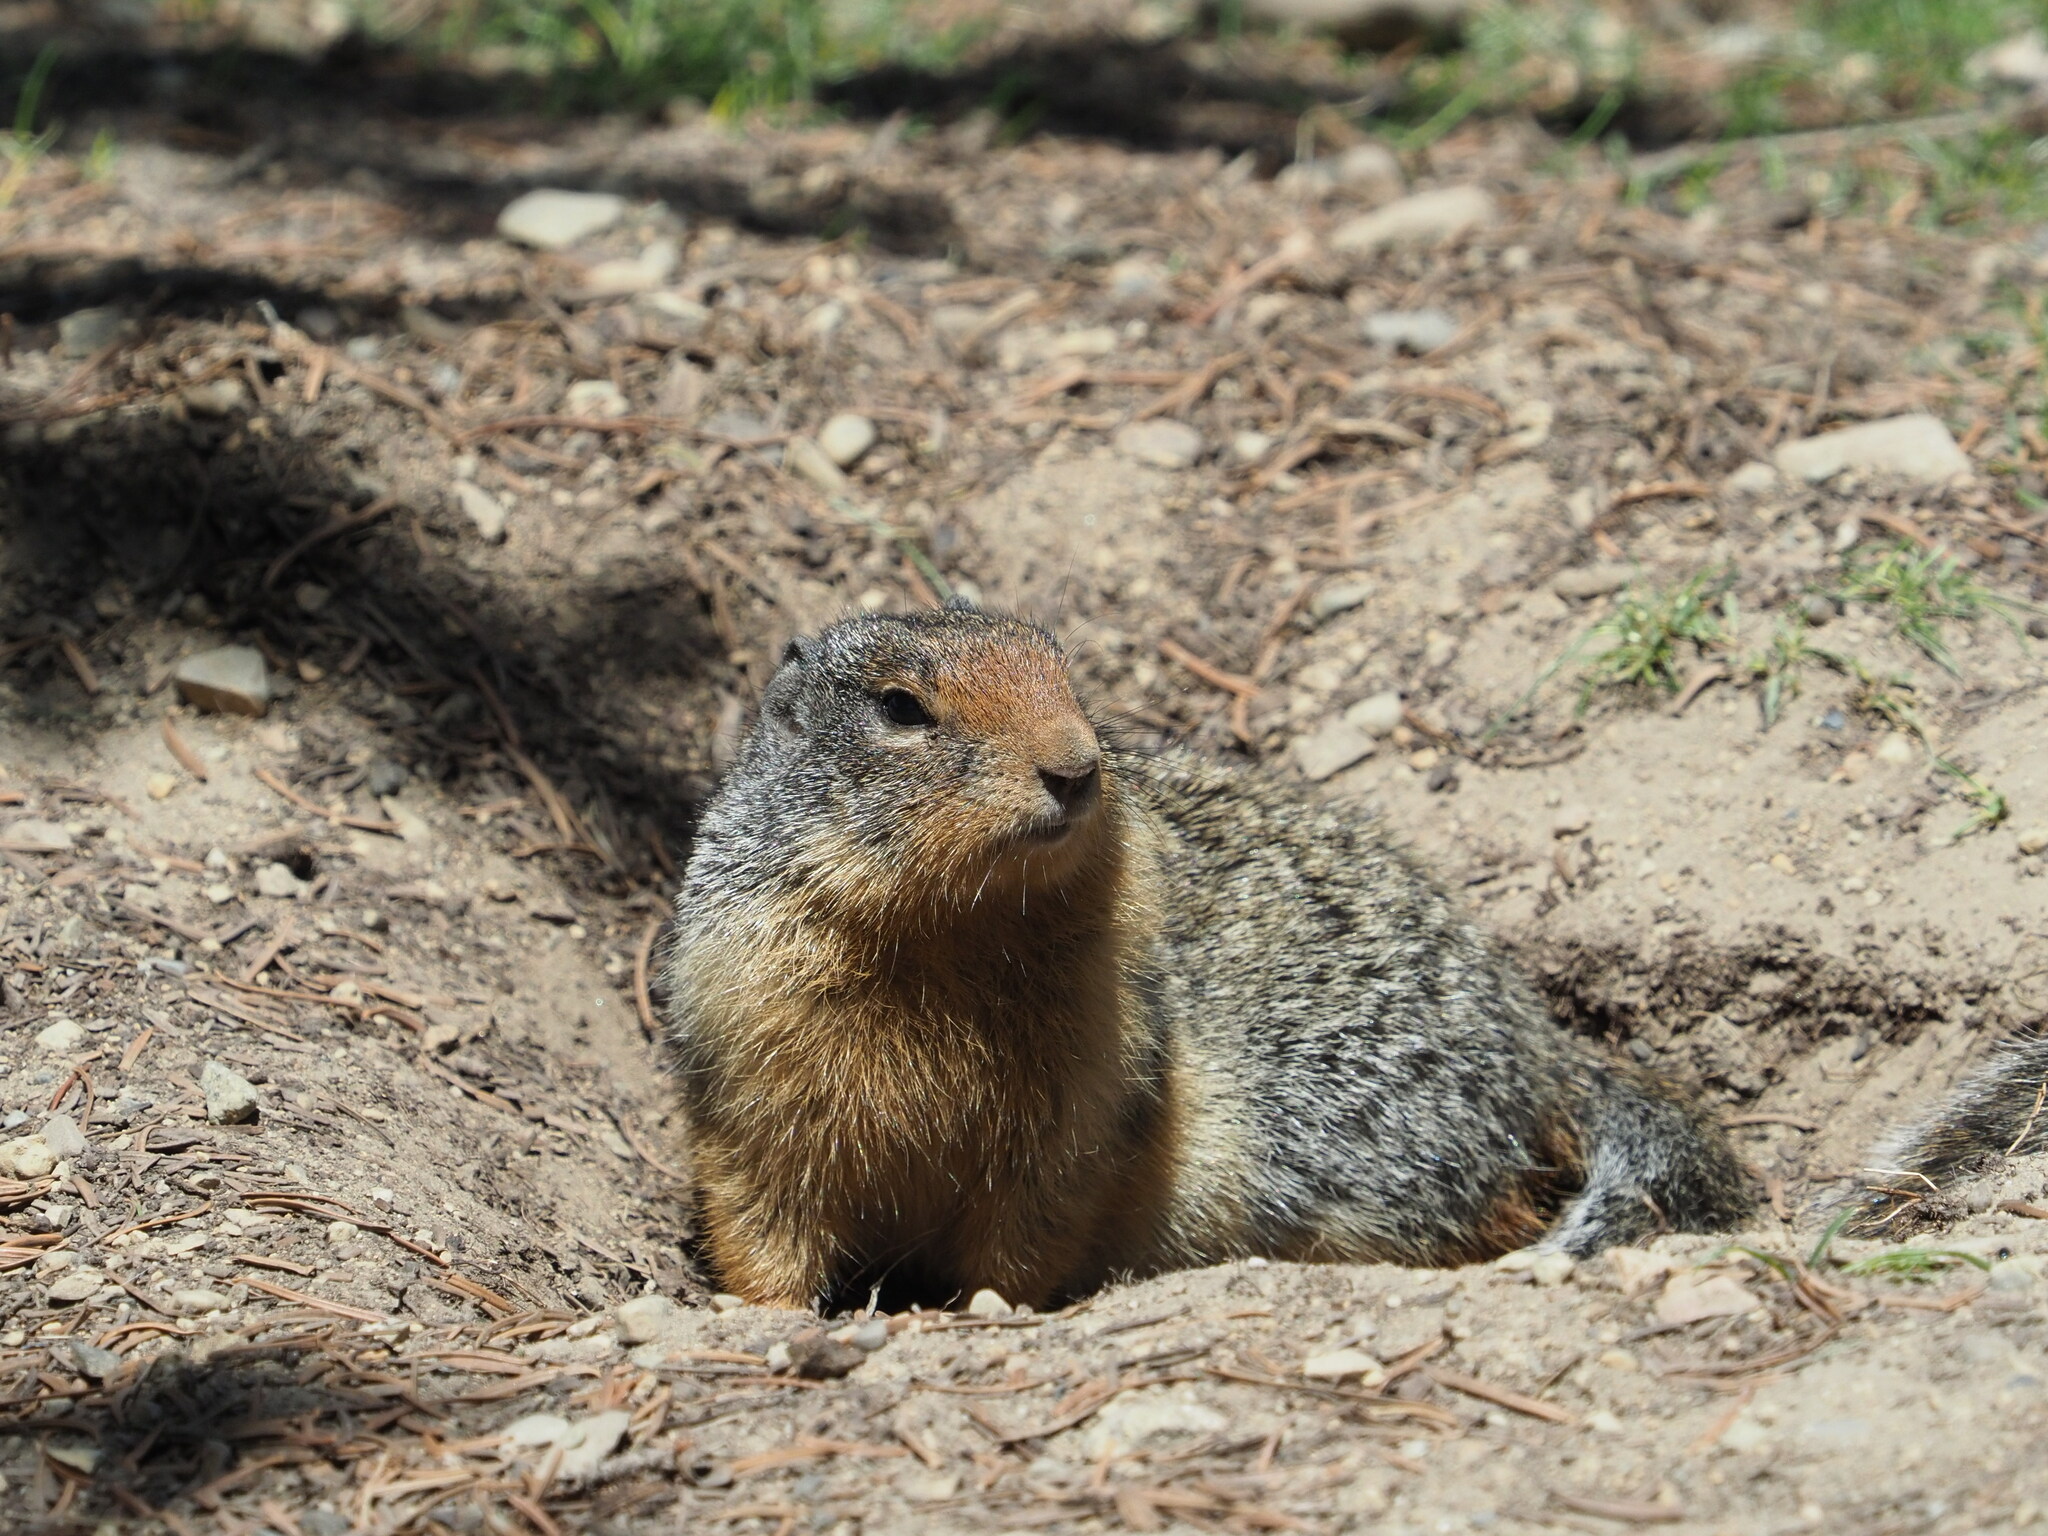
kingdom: Animalia
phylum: Chordata
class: Mammalia
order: Rodentia
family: Sciuridae
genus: Urocitellus
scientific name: Urocitellus columbianus
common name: Columbian ground squirrel
